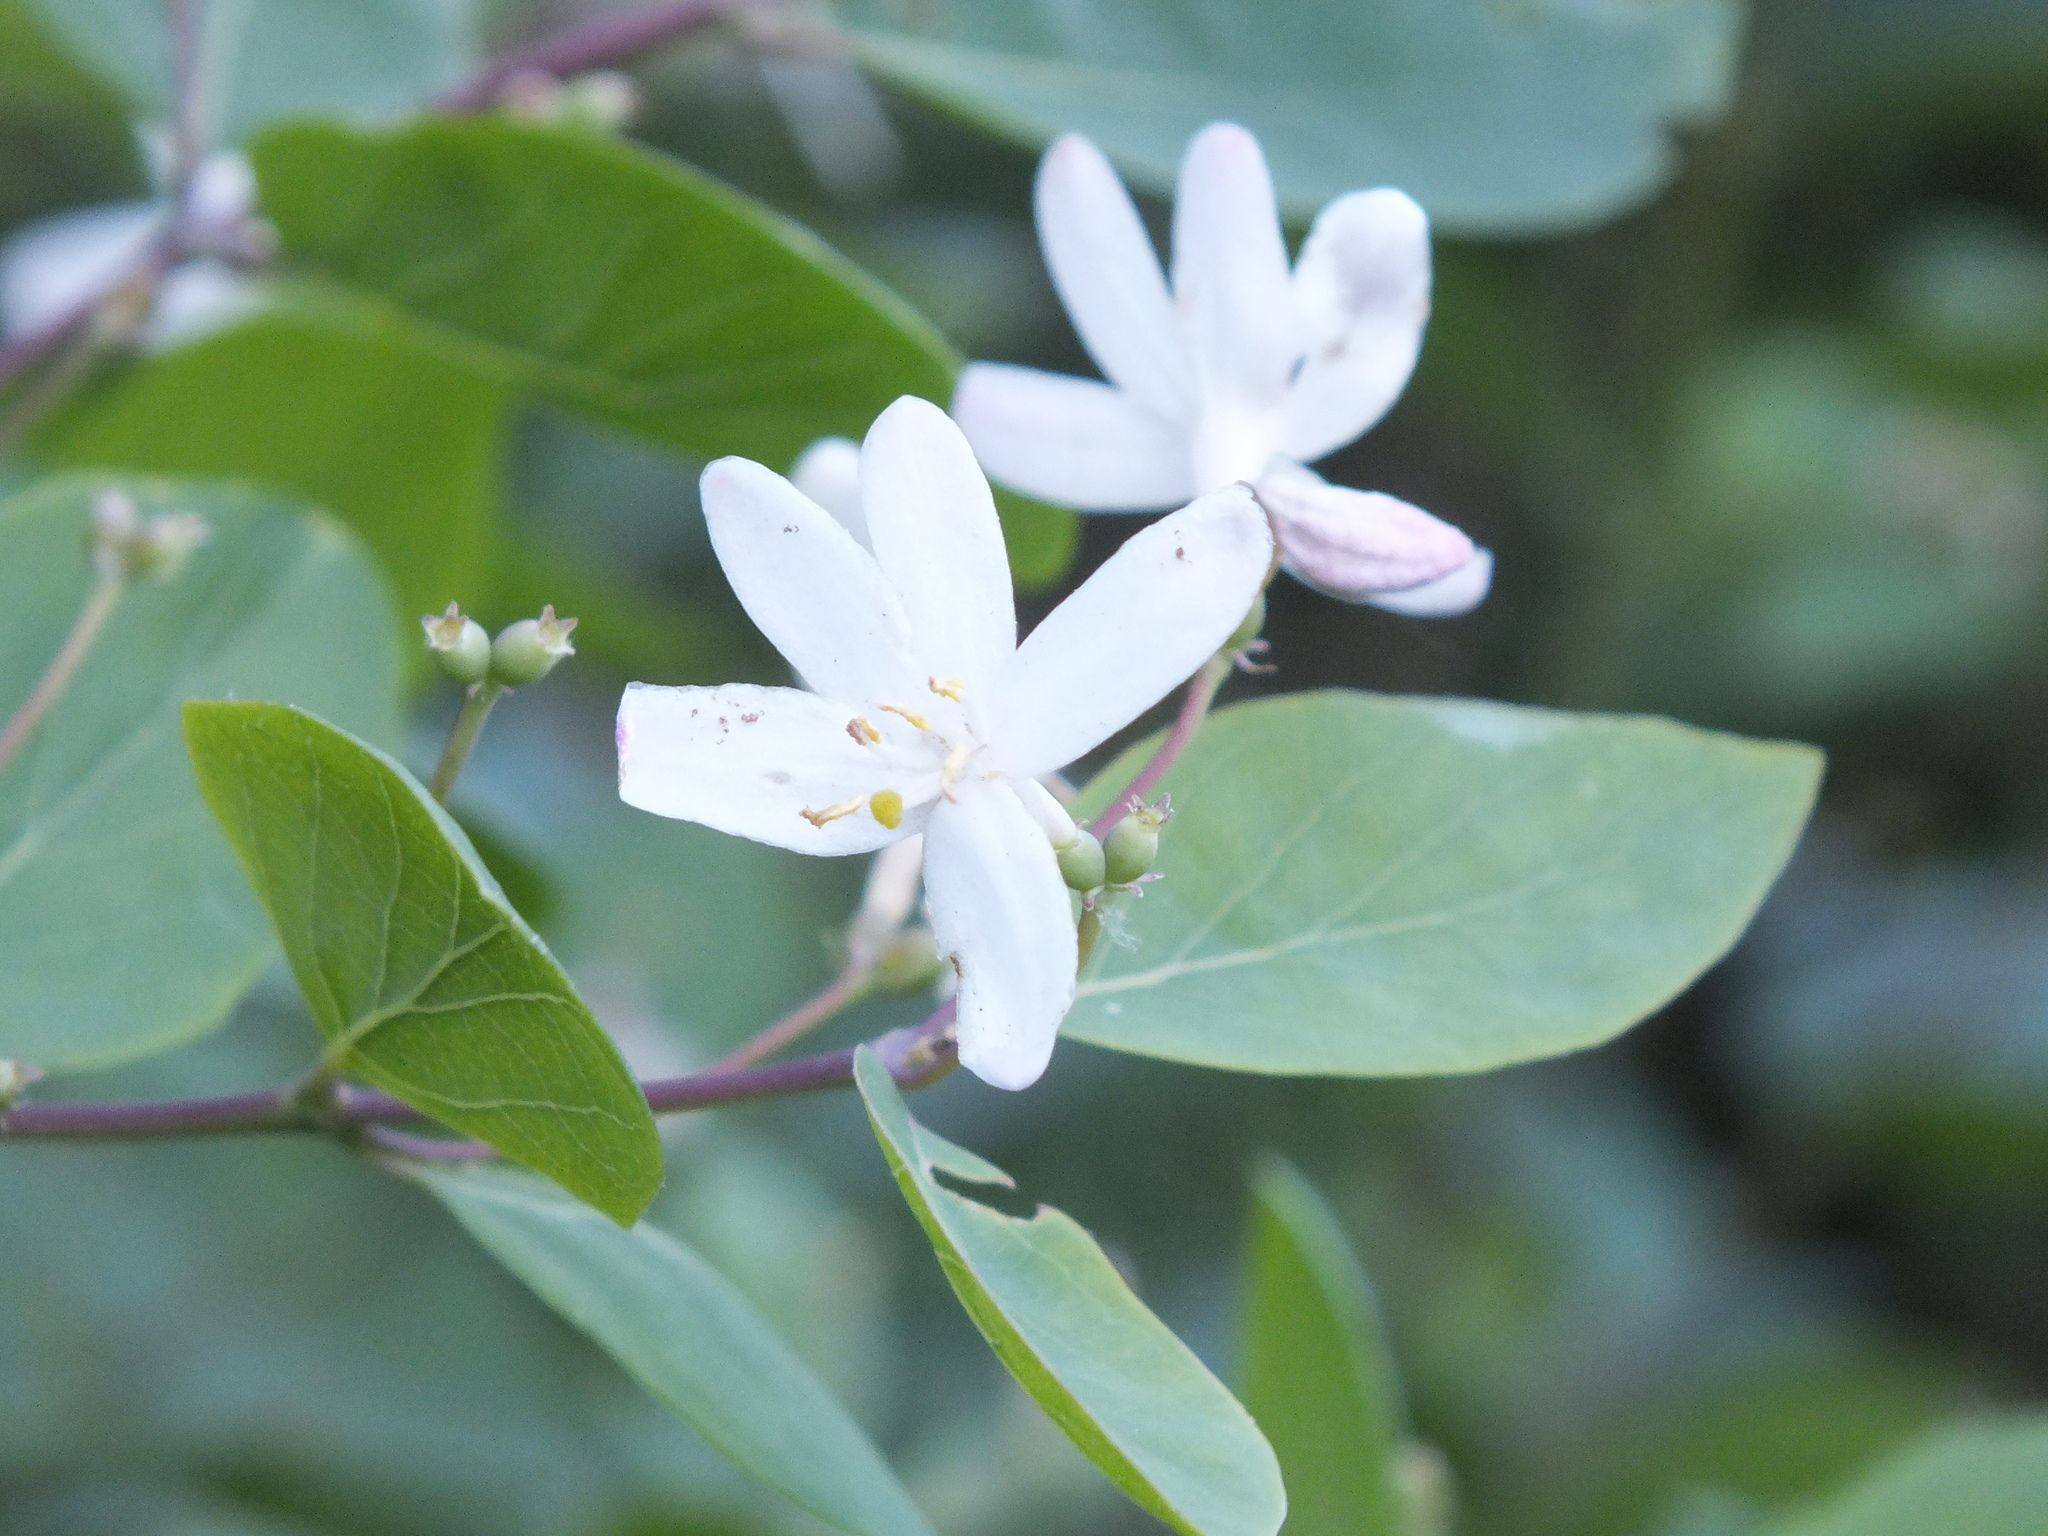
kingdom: Plantae
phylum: Tracheophyta
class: Magnoliopsida
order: Dipsacales
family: Caprifoliaceae
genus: Lonicera
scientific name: Lonicera tatarica
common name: Tatarian honeysuckle
